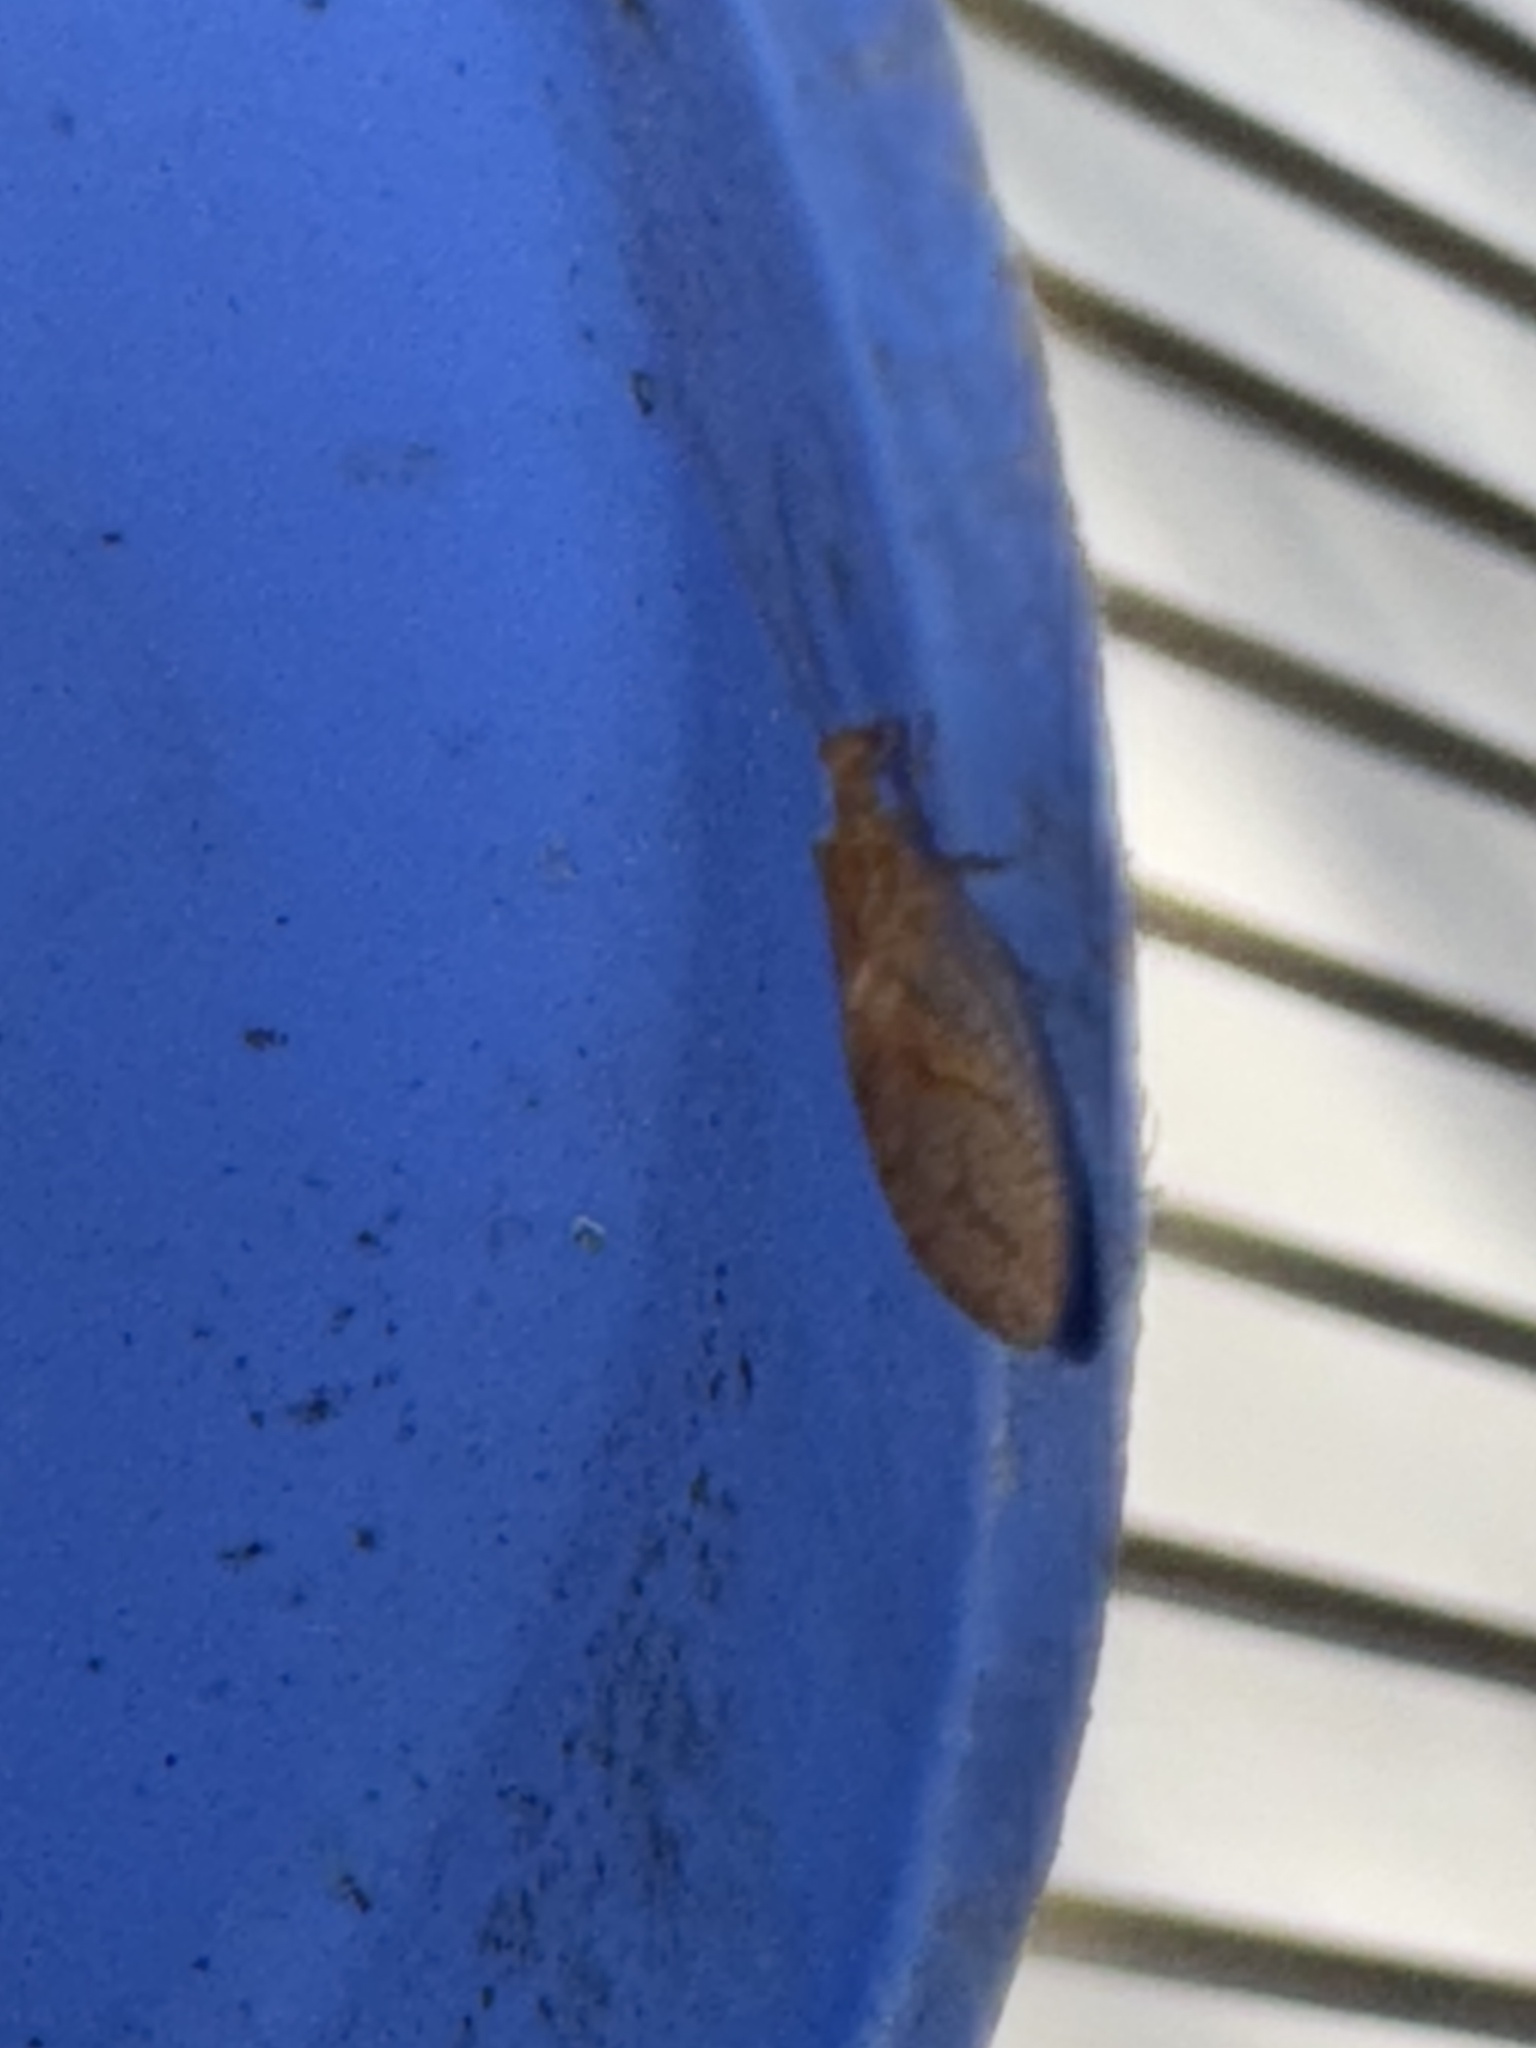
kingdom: Animalia
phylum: Arthropoda
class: Insecta
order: Neuroptera
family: Hemerobiidae
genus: Micromus
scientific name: Micromus posticus
